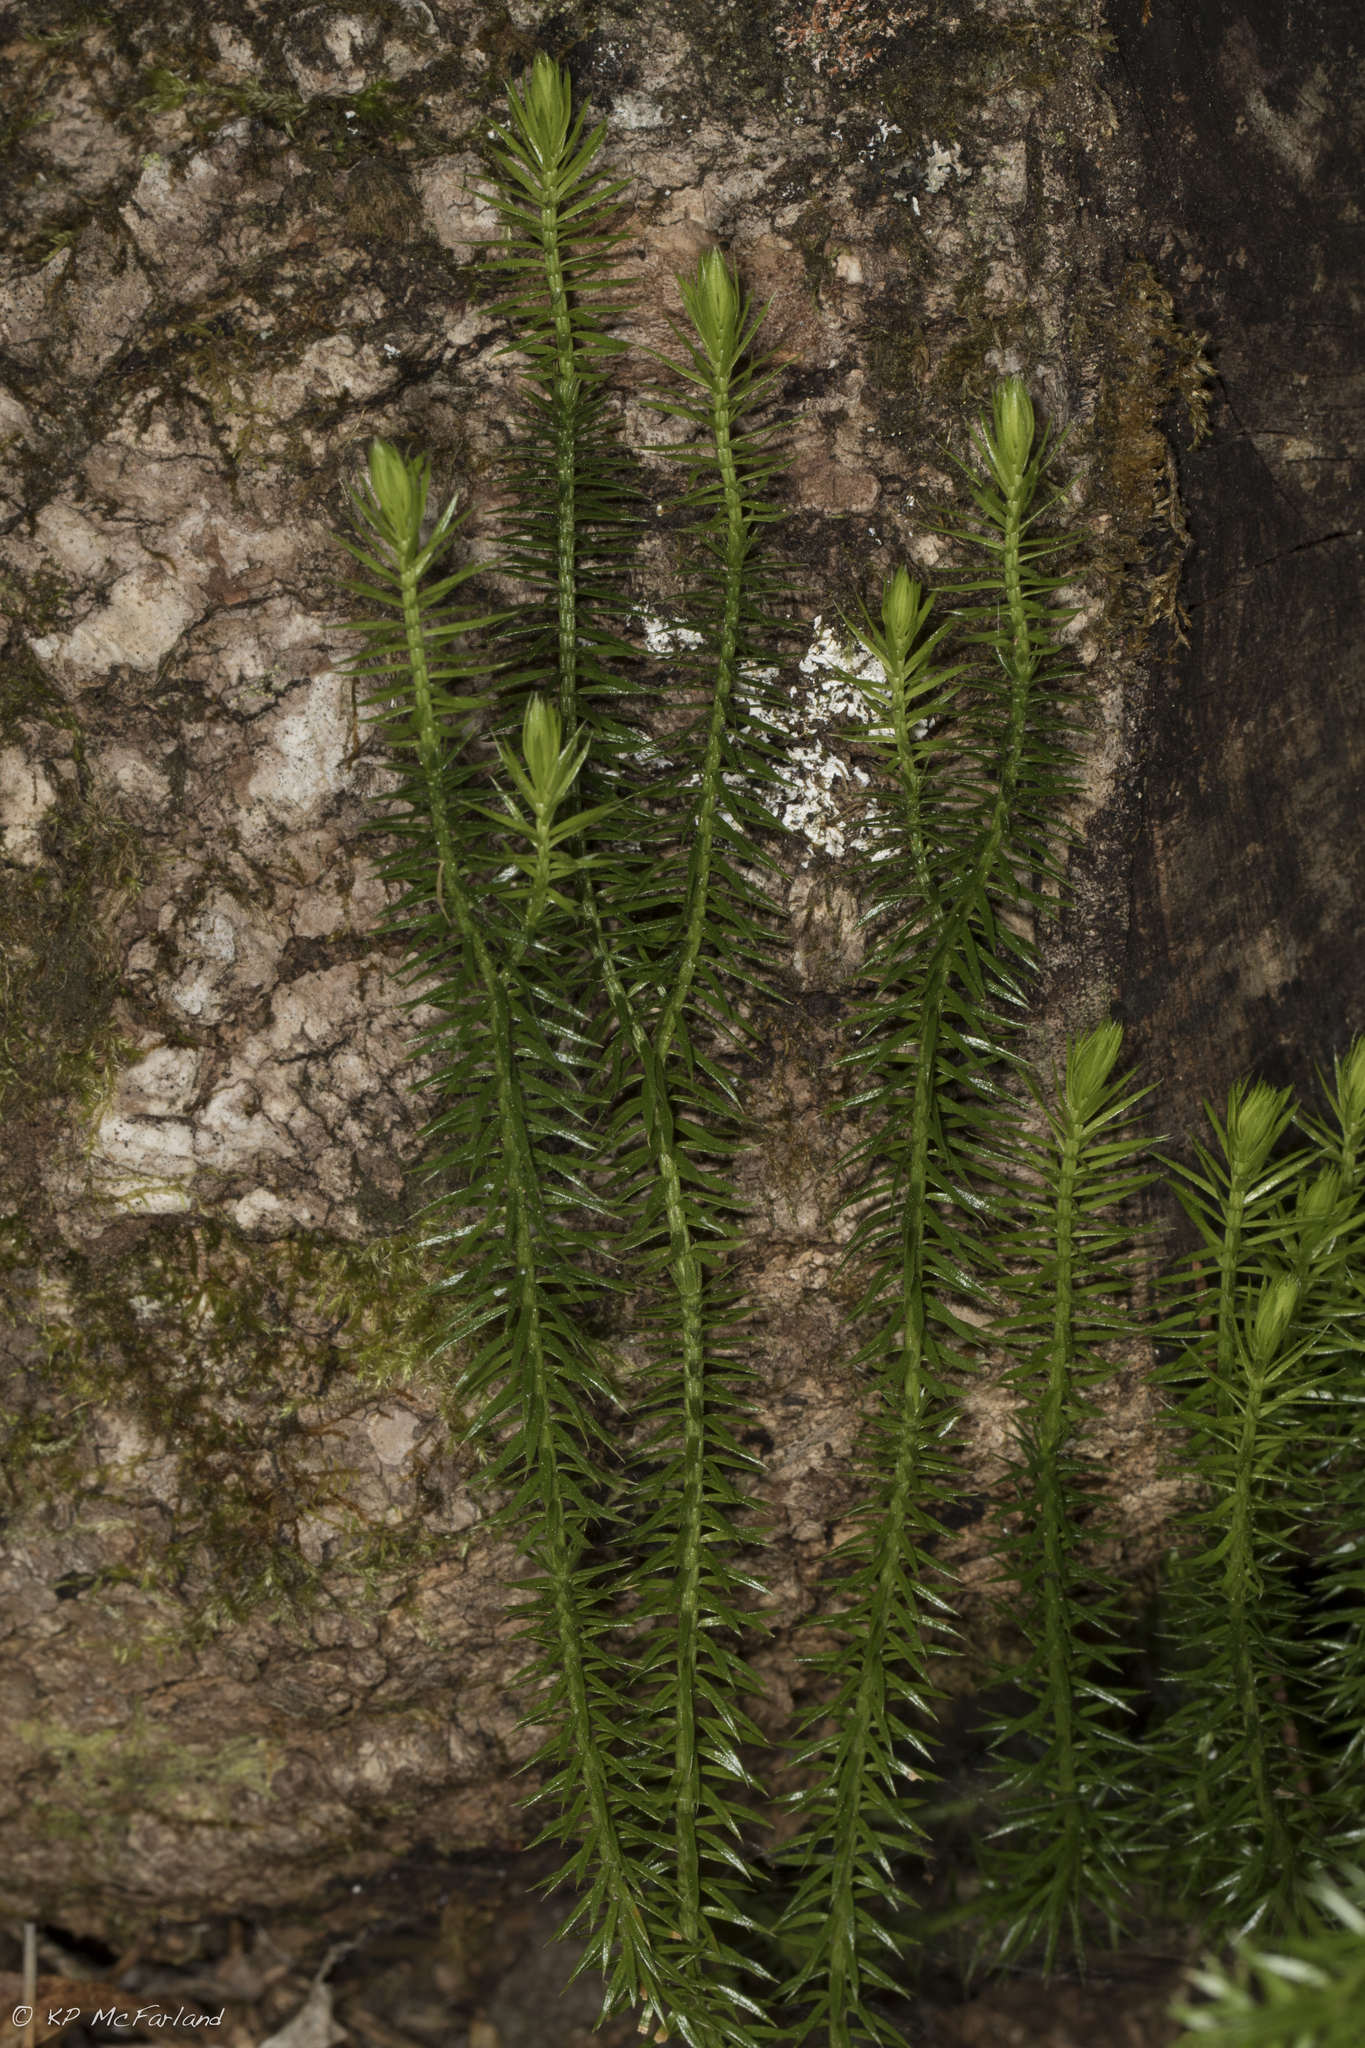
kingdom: Plantae
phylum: Tracheophyta
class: Lycopodiopsida
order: Lycopodiales
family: Lycopodiaceae
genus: Spinulum
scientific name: Spinulum annotinum
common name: Interrupted club-moss
